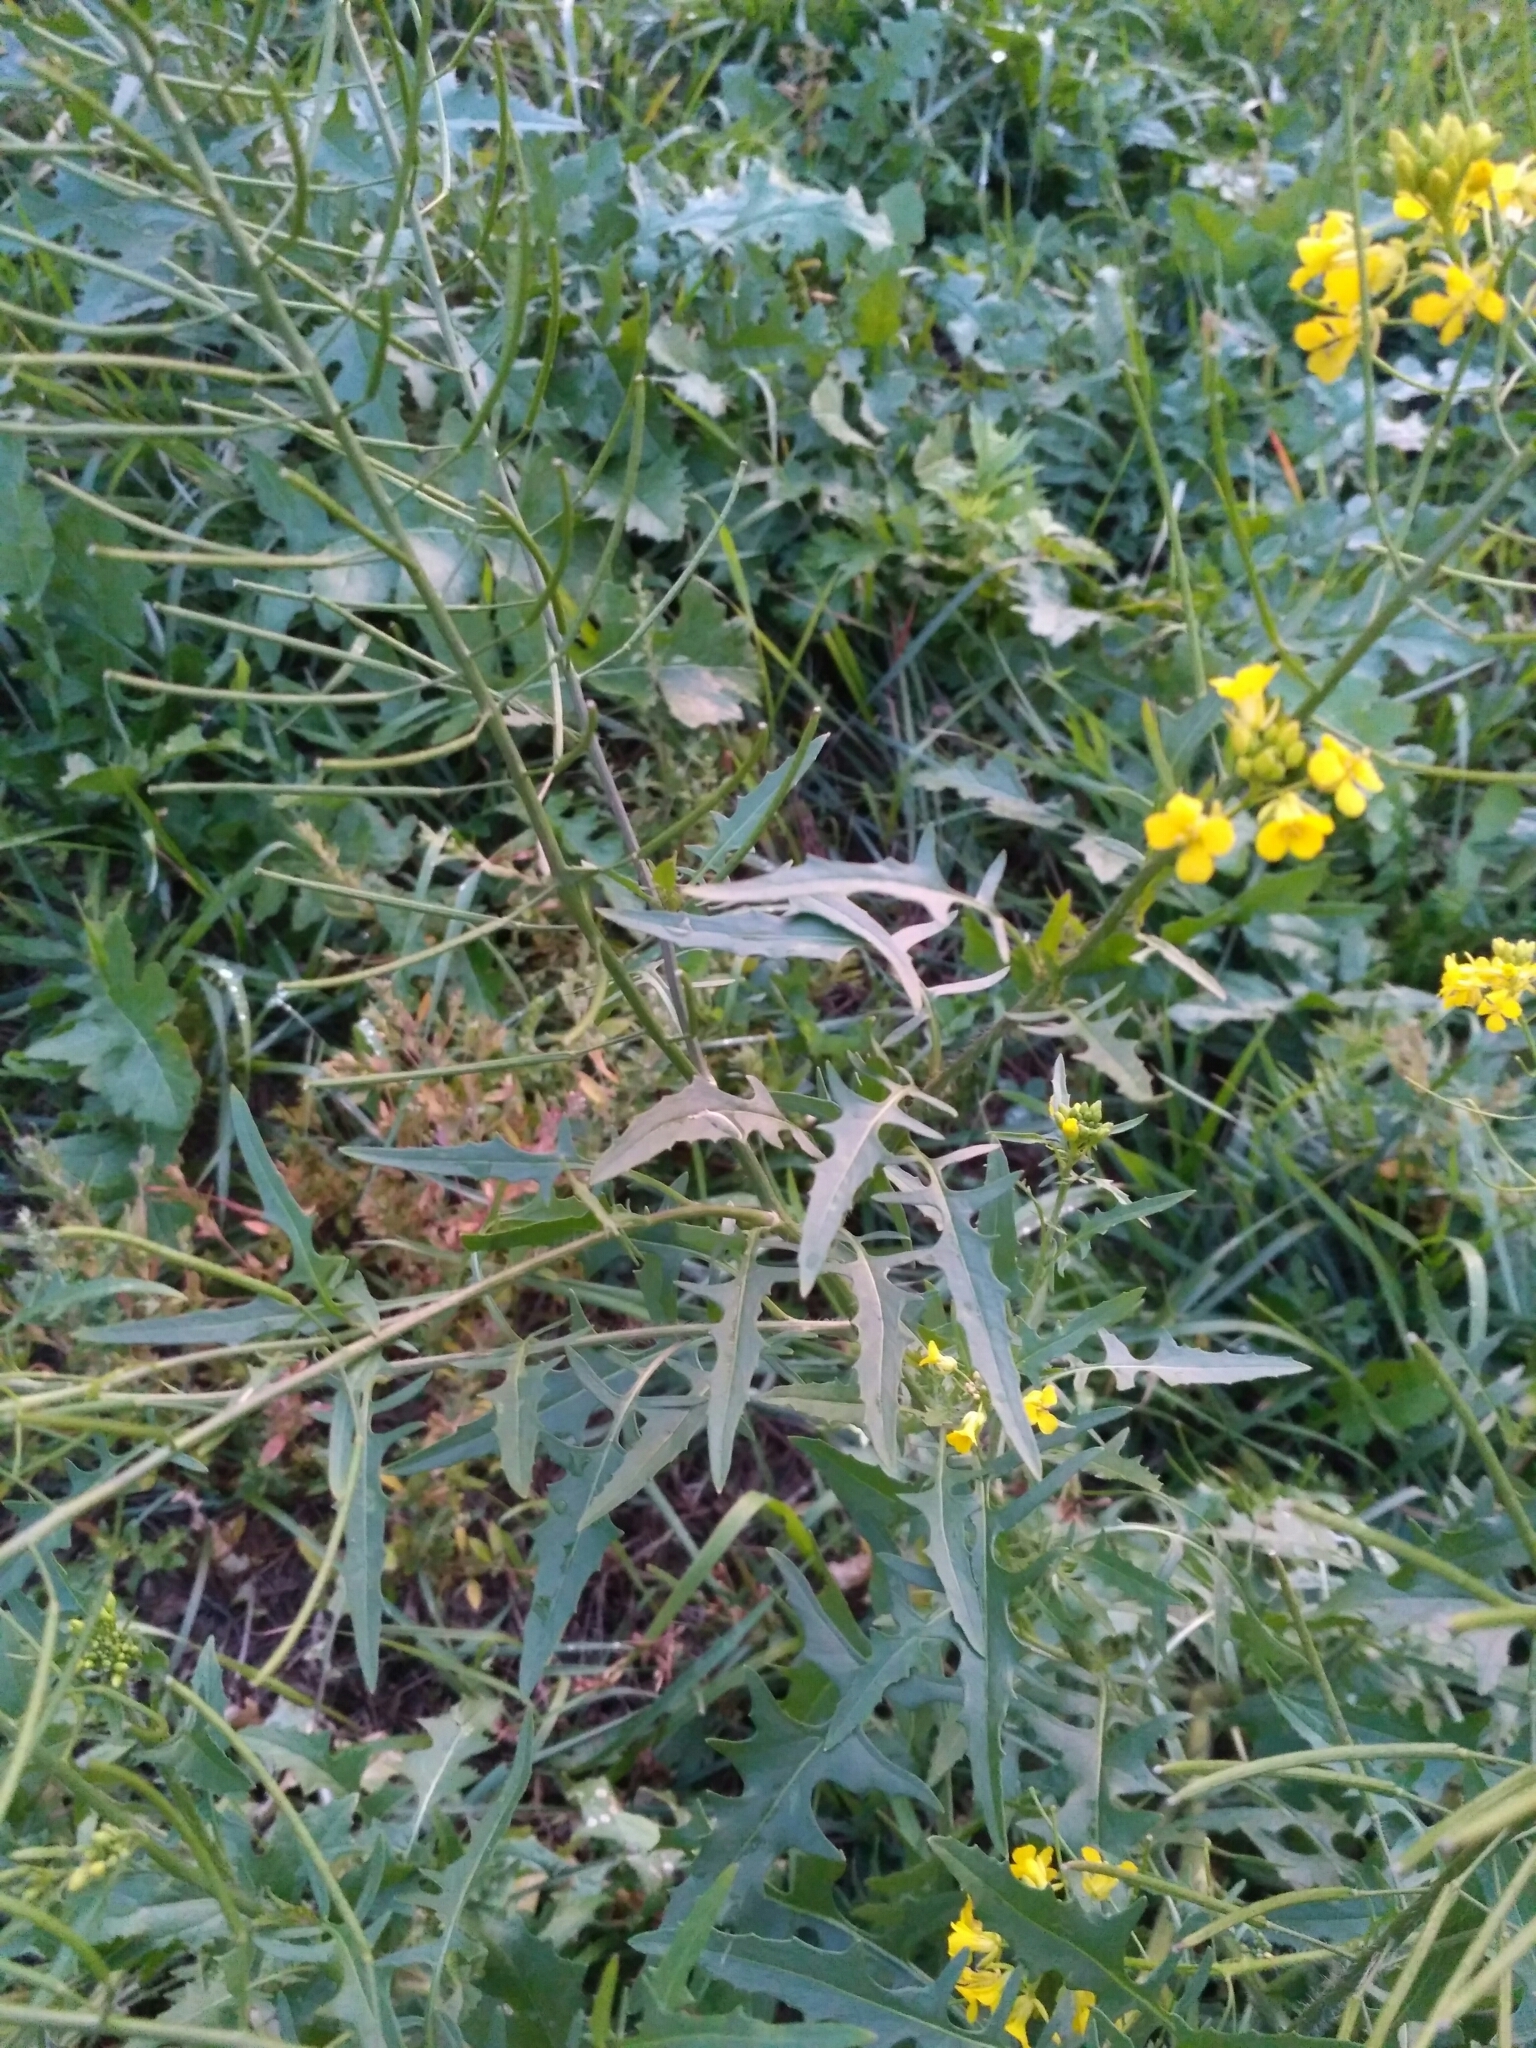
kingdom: Plantae
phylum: Tracheophyta
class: Magnoliopsida
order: Brassicales
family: Brassicaceae
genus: Sisymbrium
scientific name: Sisymbrium loeselii
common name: False london-rocket
